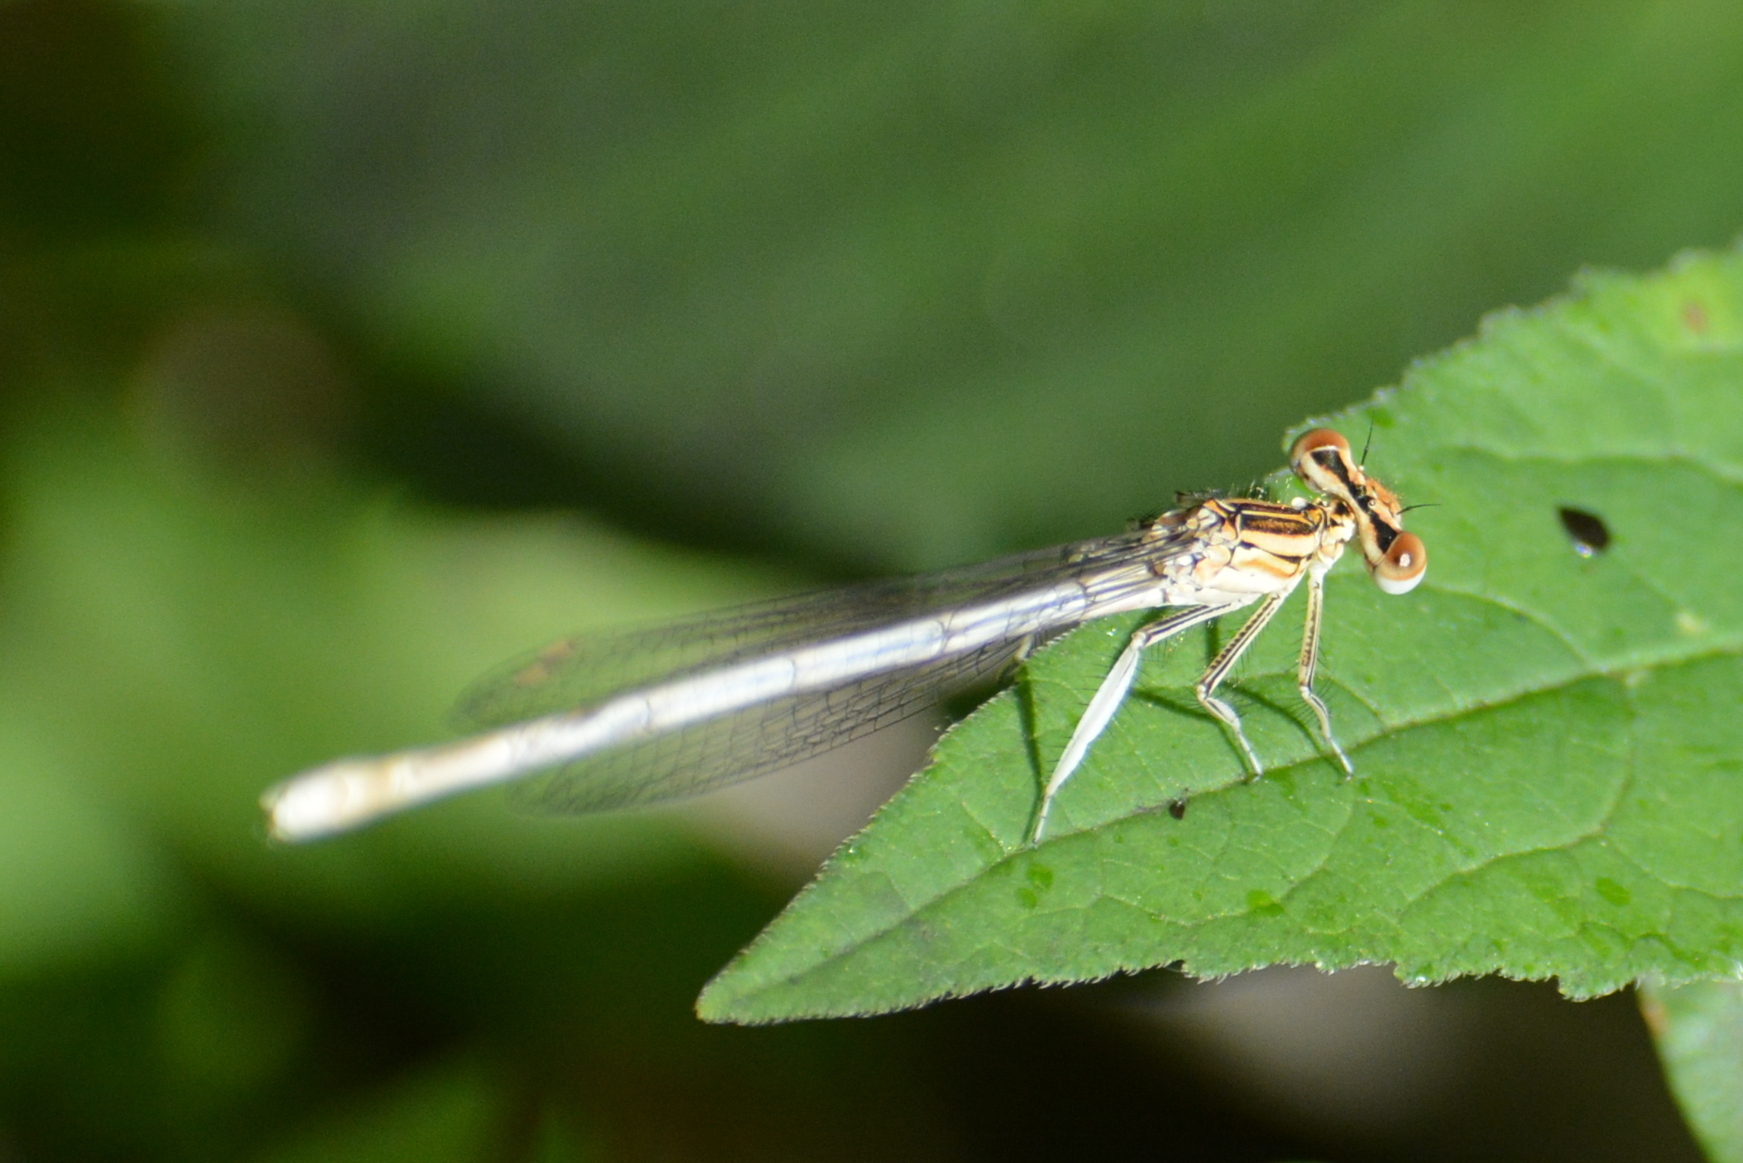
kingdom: Animalia
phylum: Arthropoda
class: Insecta
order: Odonata
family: Platycnemididae
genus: Platycnemis
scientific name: Platycnemis pennipes
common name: White-legged damselfly
